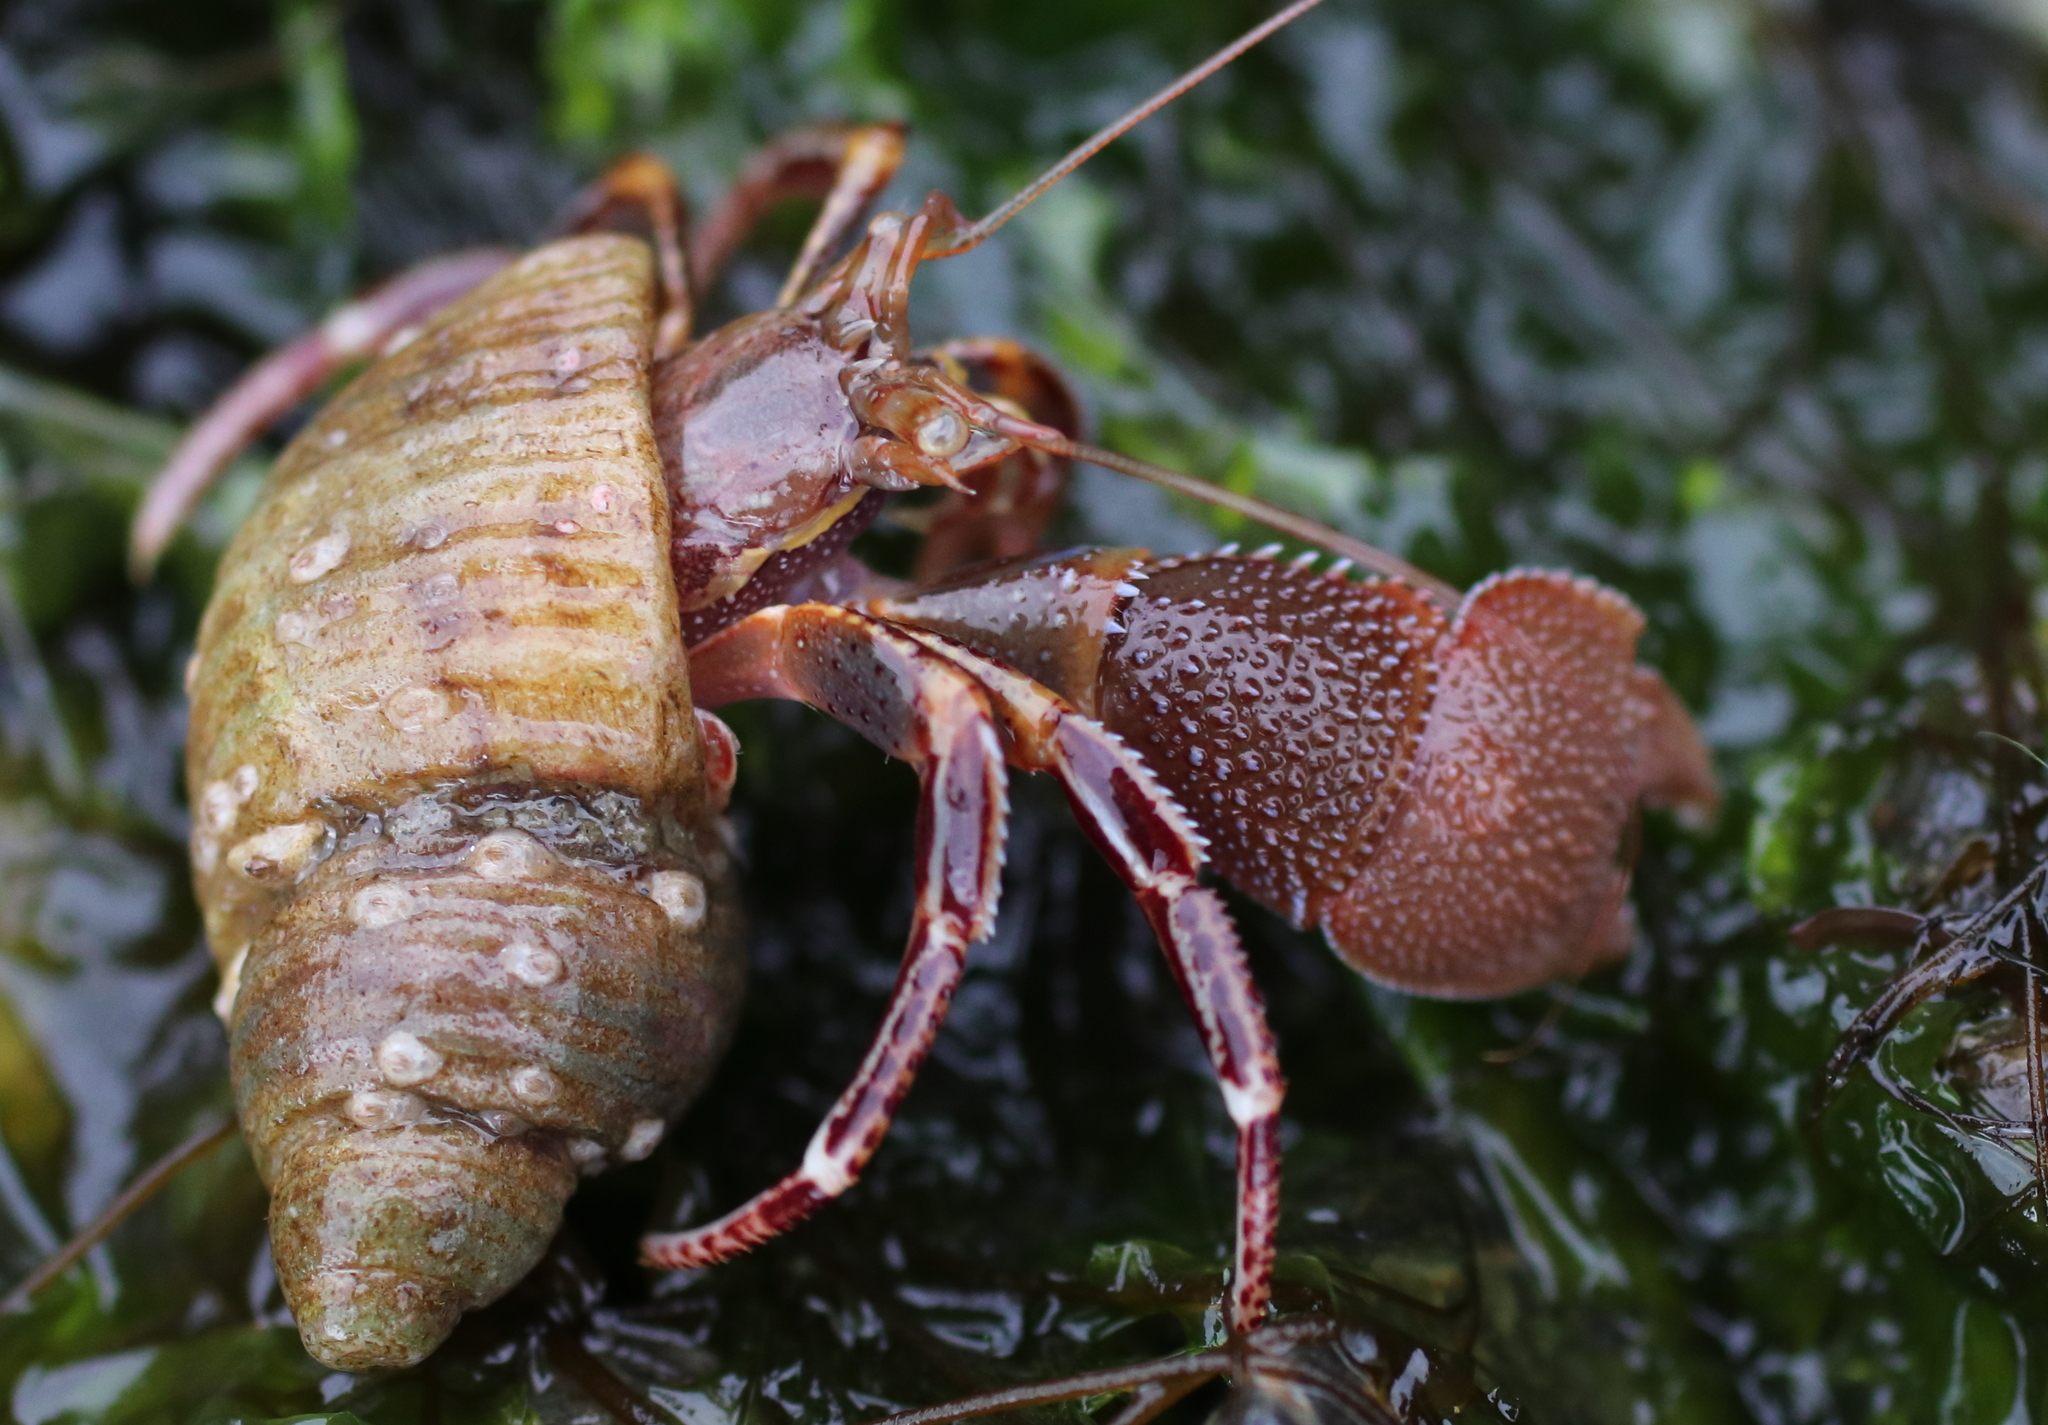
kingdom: Animalia
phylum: Arthropoda
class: Malacostraca
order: Decapoda
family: Paguridae
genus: Elassochirus
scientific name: Elassochirus tenuimanus
